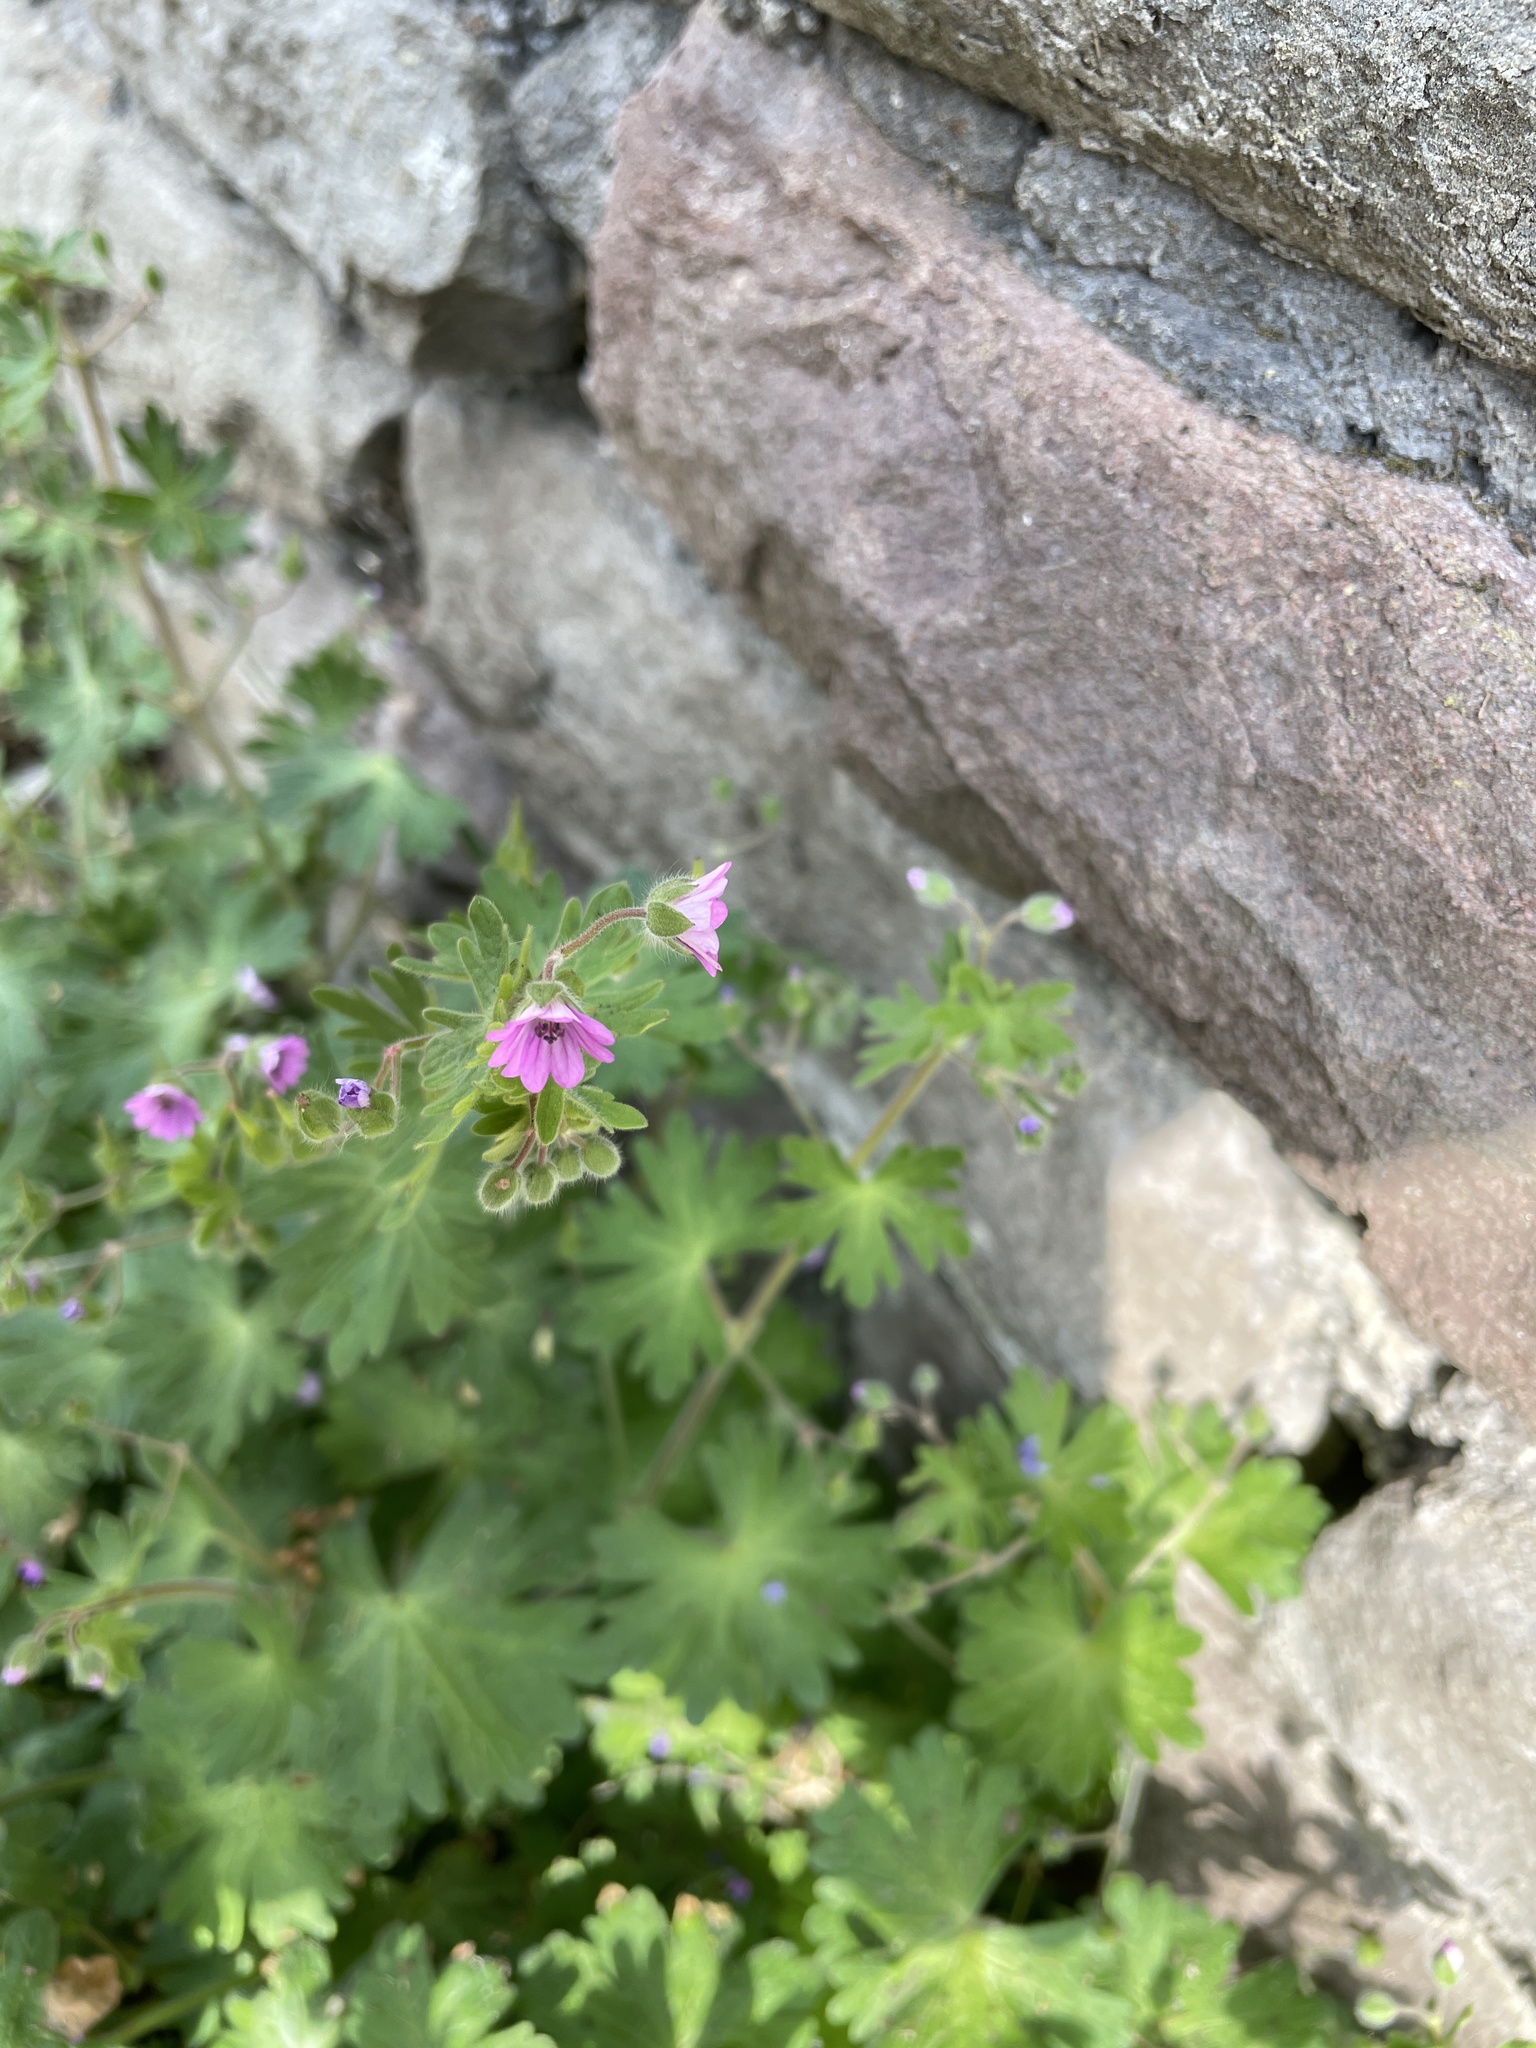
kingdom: Plantae
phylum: Tracheophyta
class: Magnoliopsida
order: Geraniales
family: Geraniaceae
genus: Geranium
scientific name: Geranium molle
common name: Dove's-foot crane's-bill
